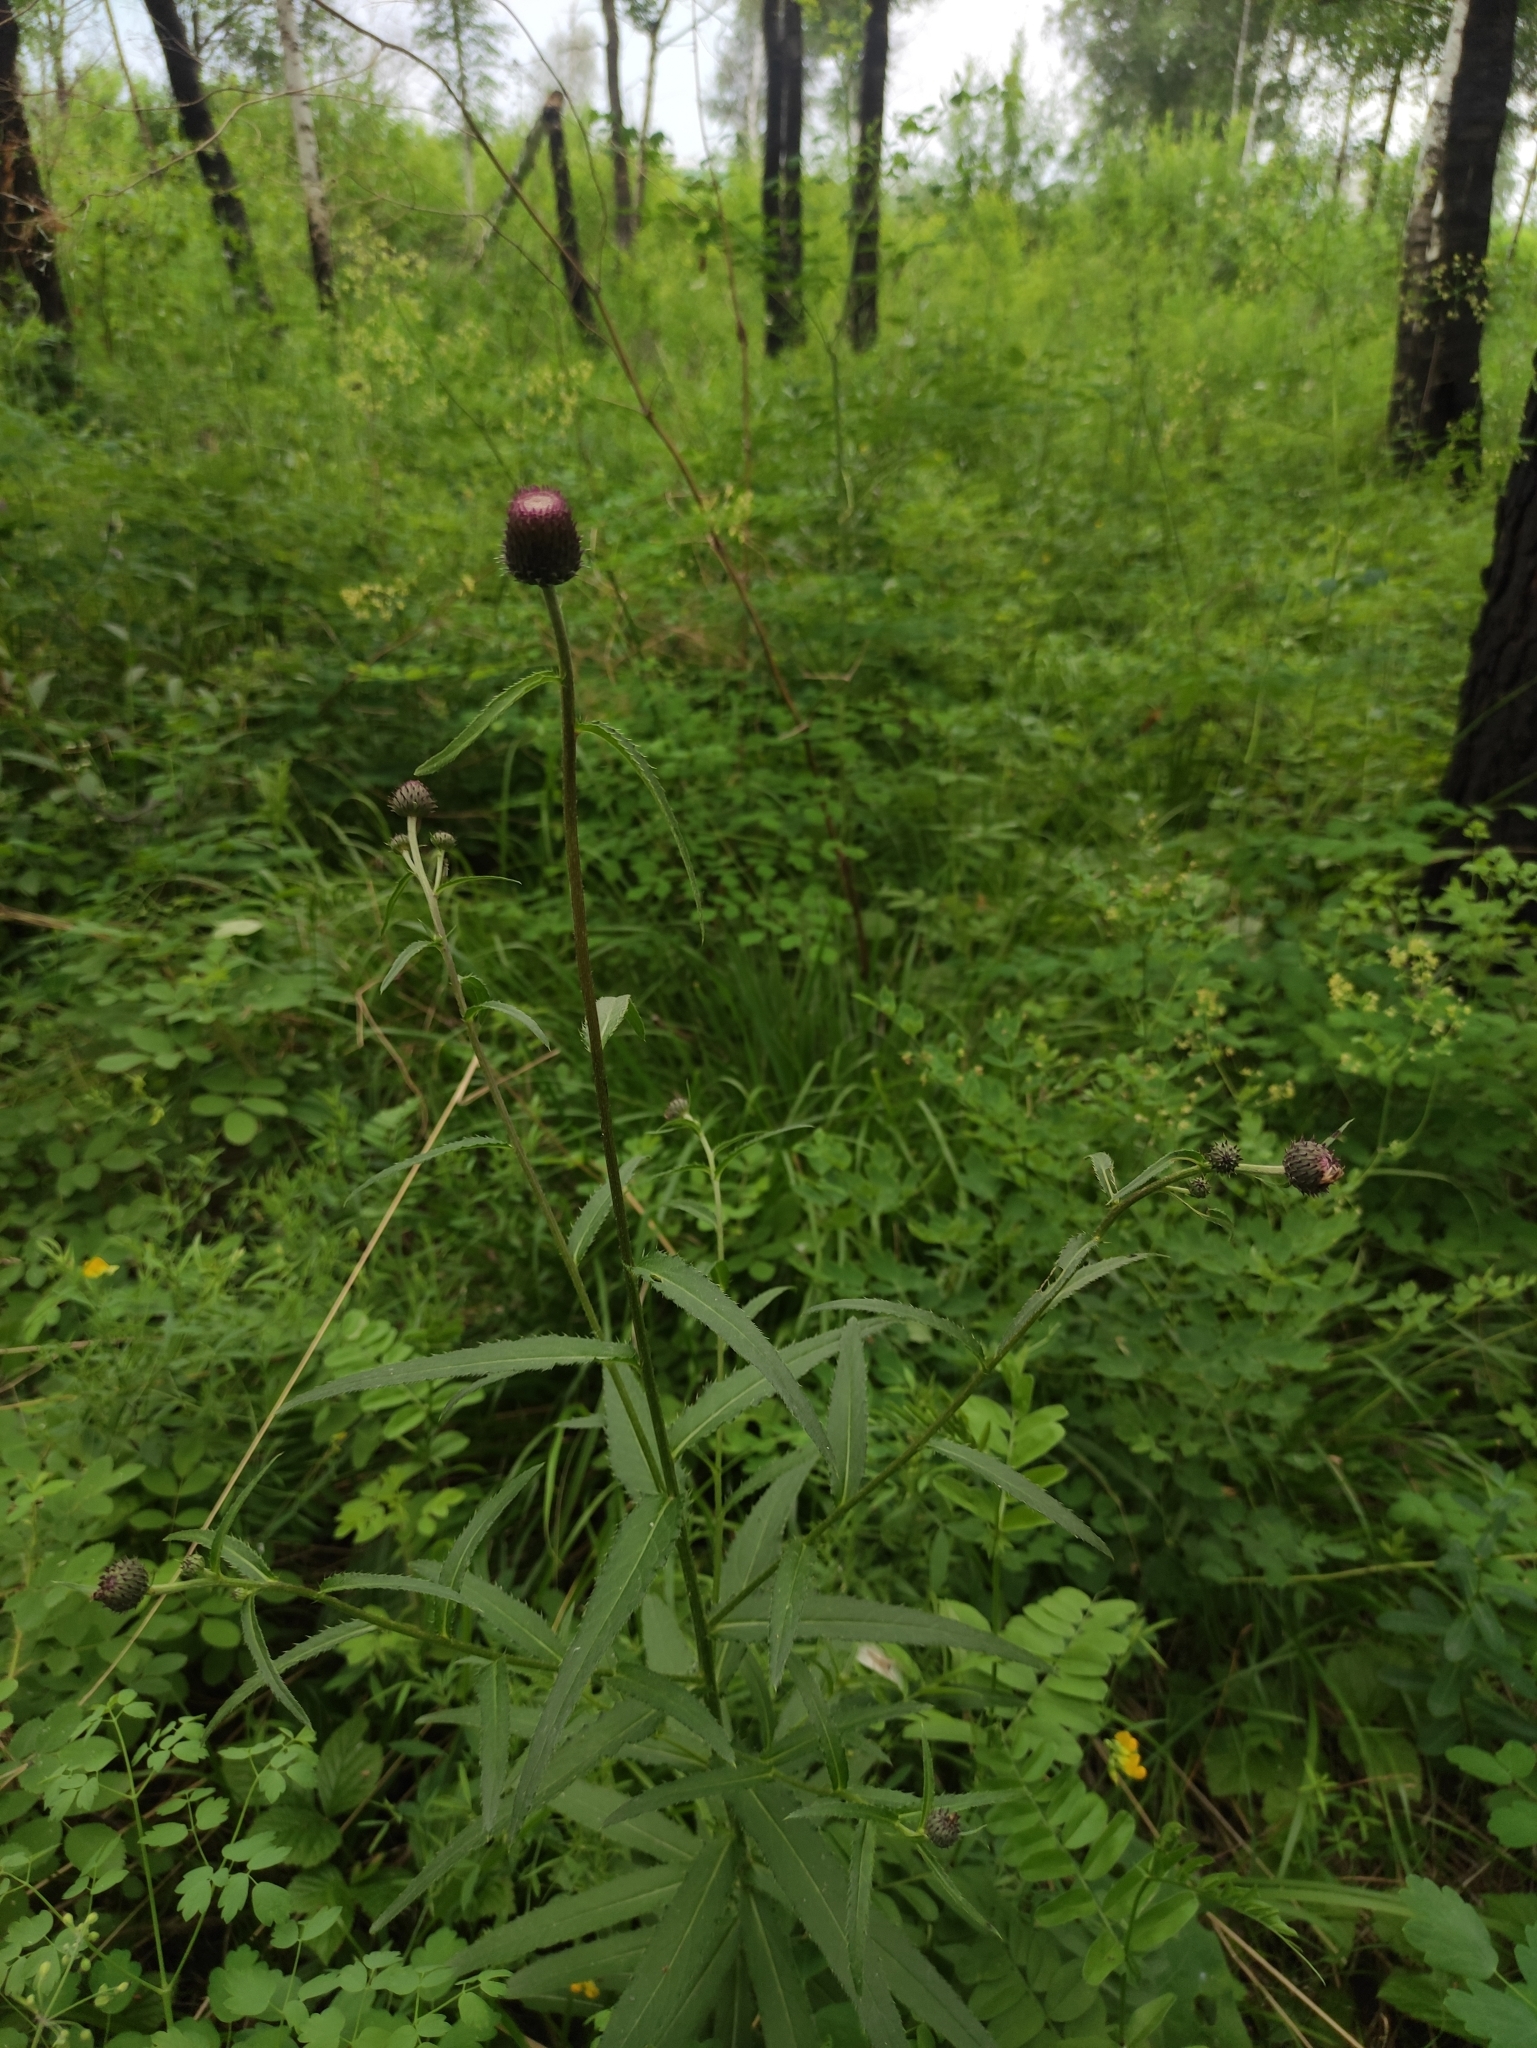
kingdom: Plantae
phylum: Tracheophyta
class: Magnoliopsida
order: Asterales
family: Asteraceae
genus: Cirsium
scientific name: Cirsium serratuloides
